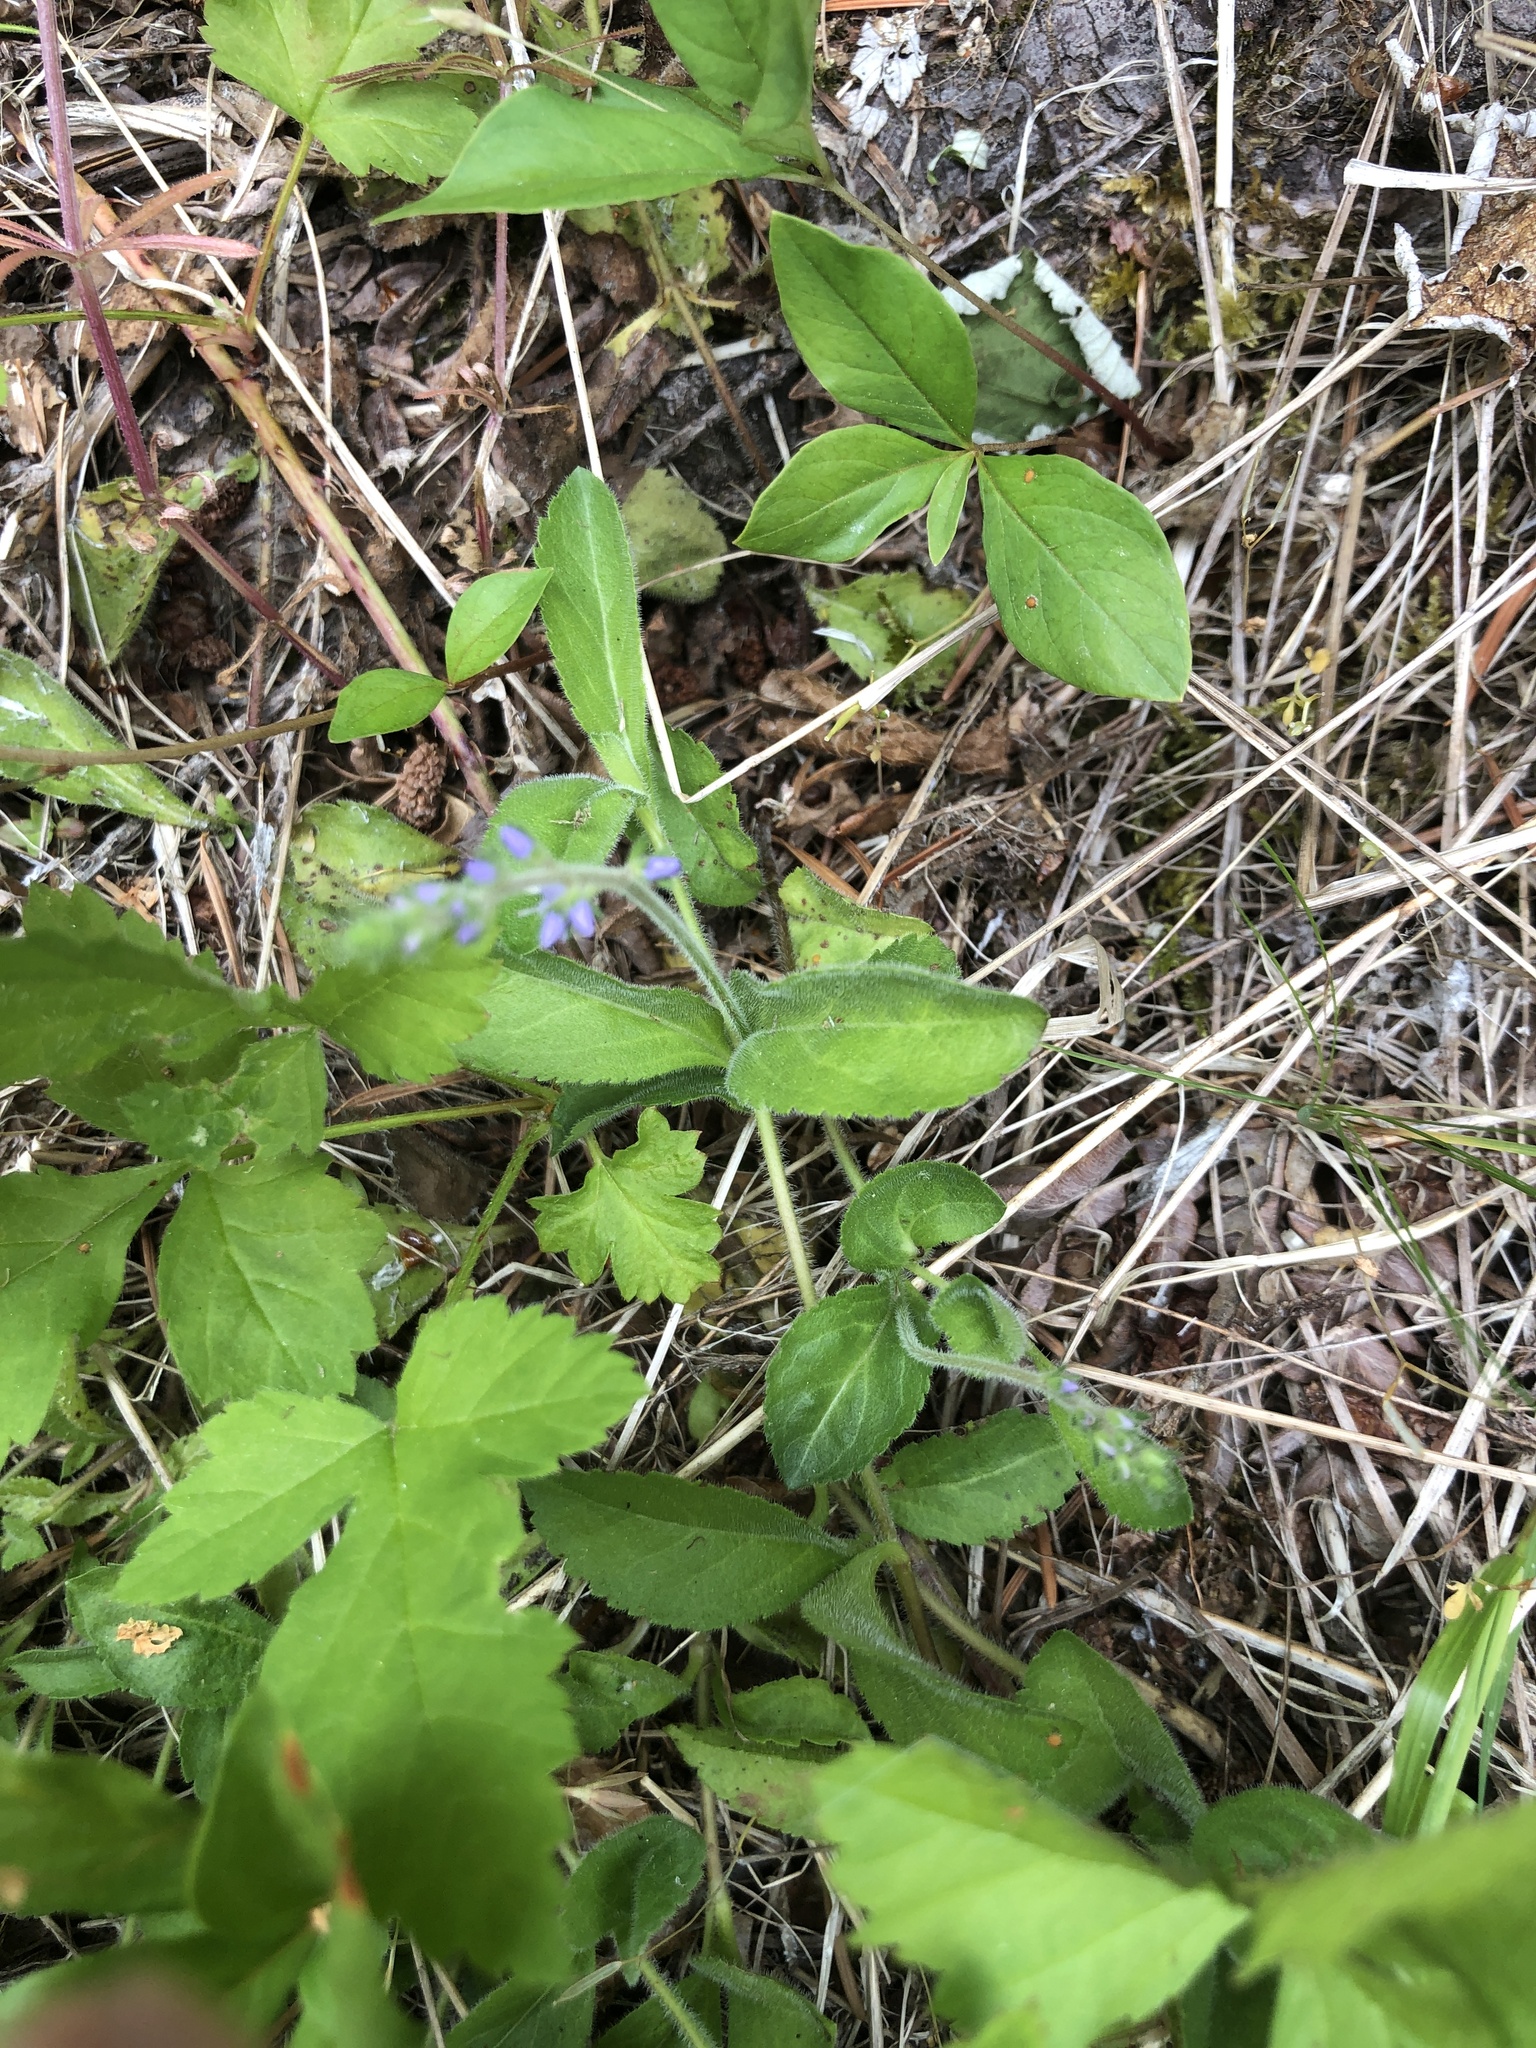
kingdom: Plantae
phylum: Tracheophyta
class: Magnoliopsida
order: Lamiales
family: Plantaginaceae
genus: Veronica
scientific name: Veronica officinalis
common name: Common speedwell
